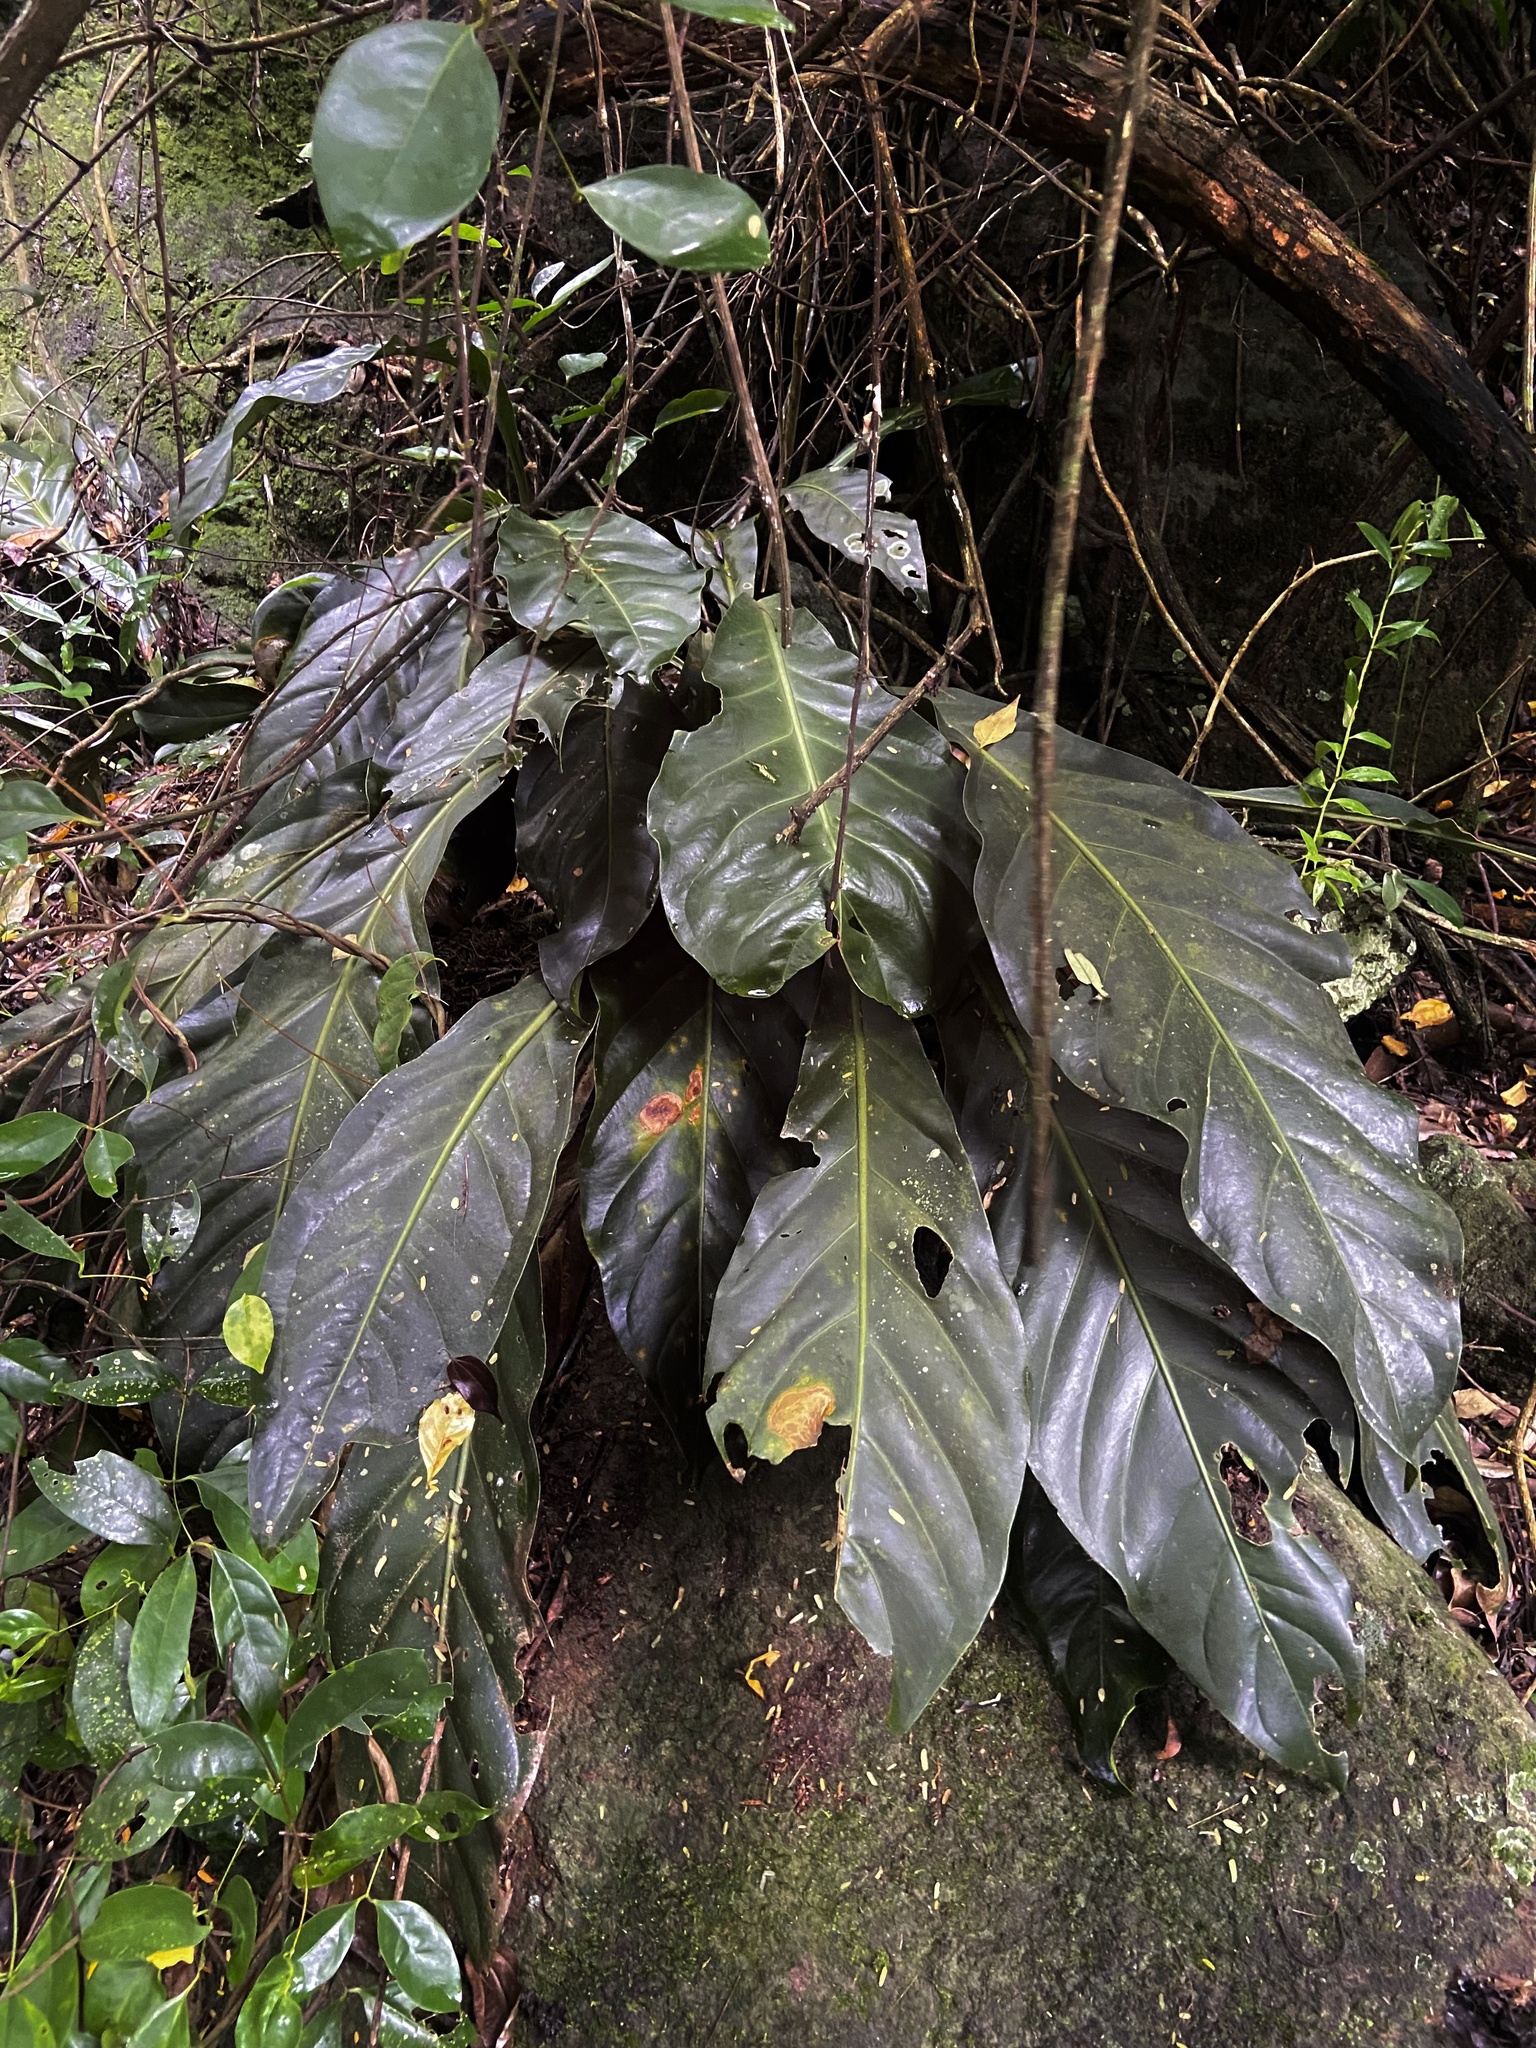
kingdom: Plantae
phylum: Tracheophyta
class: Liliopsida
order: Alismatales
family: Araceae
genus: Anthurium
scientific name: Anthurium solitarium
